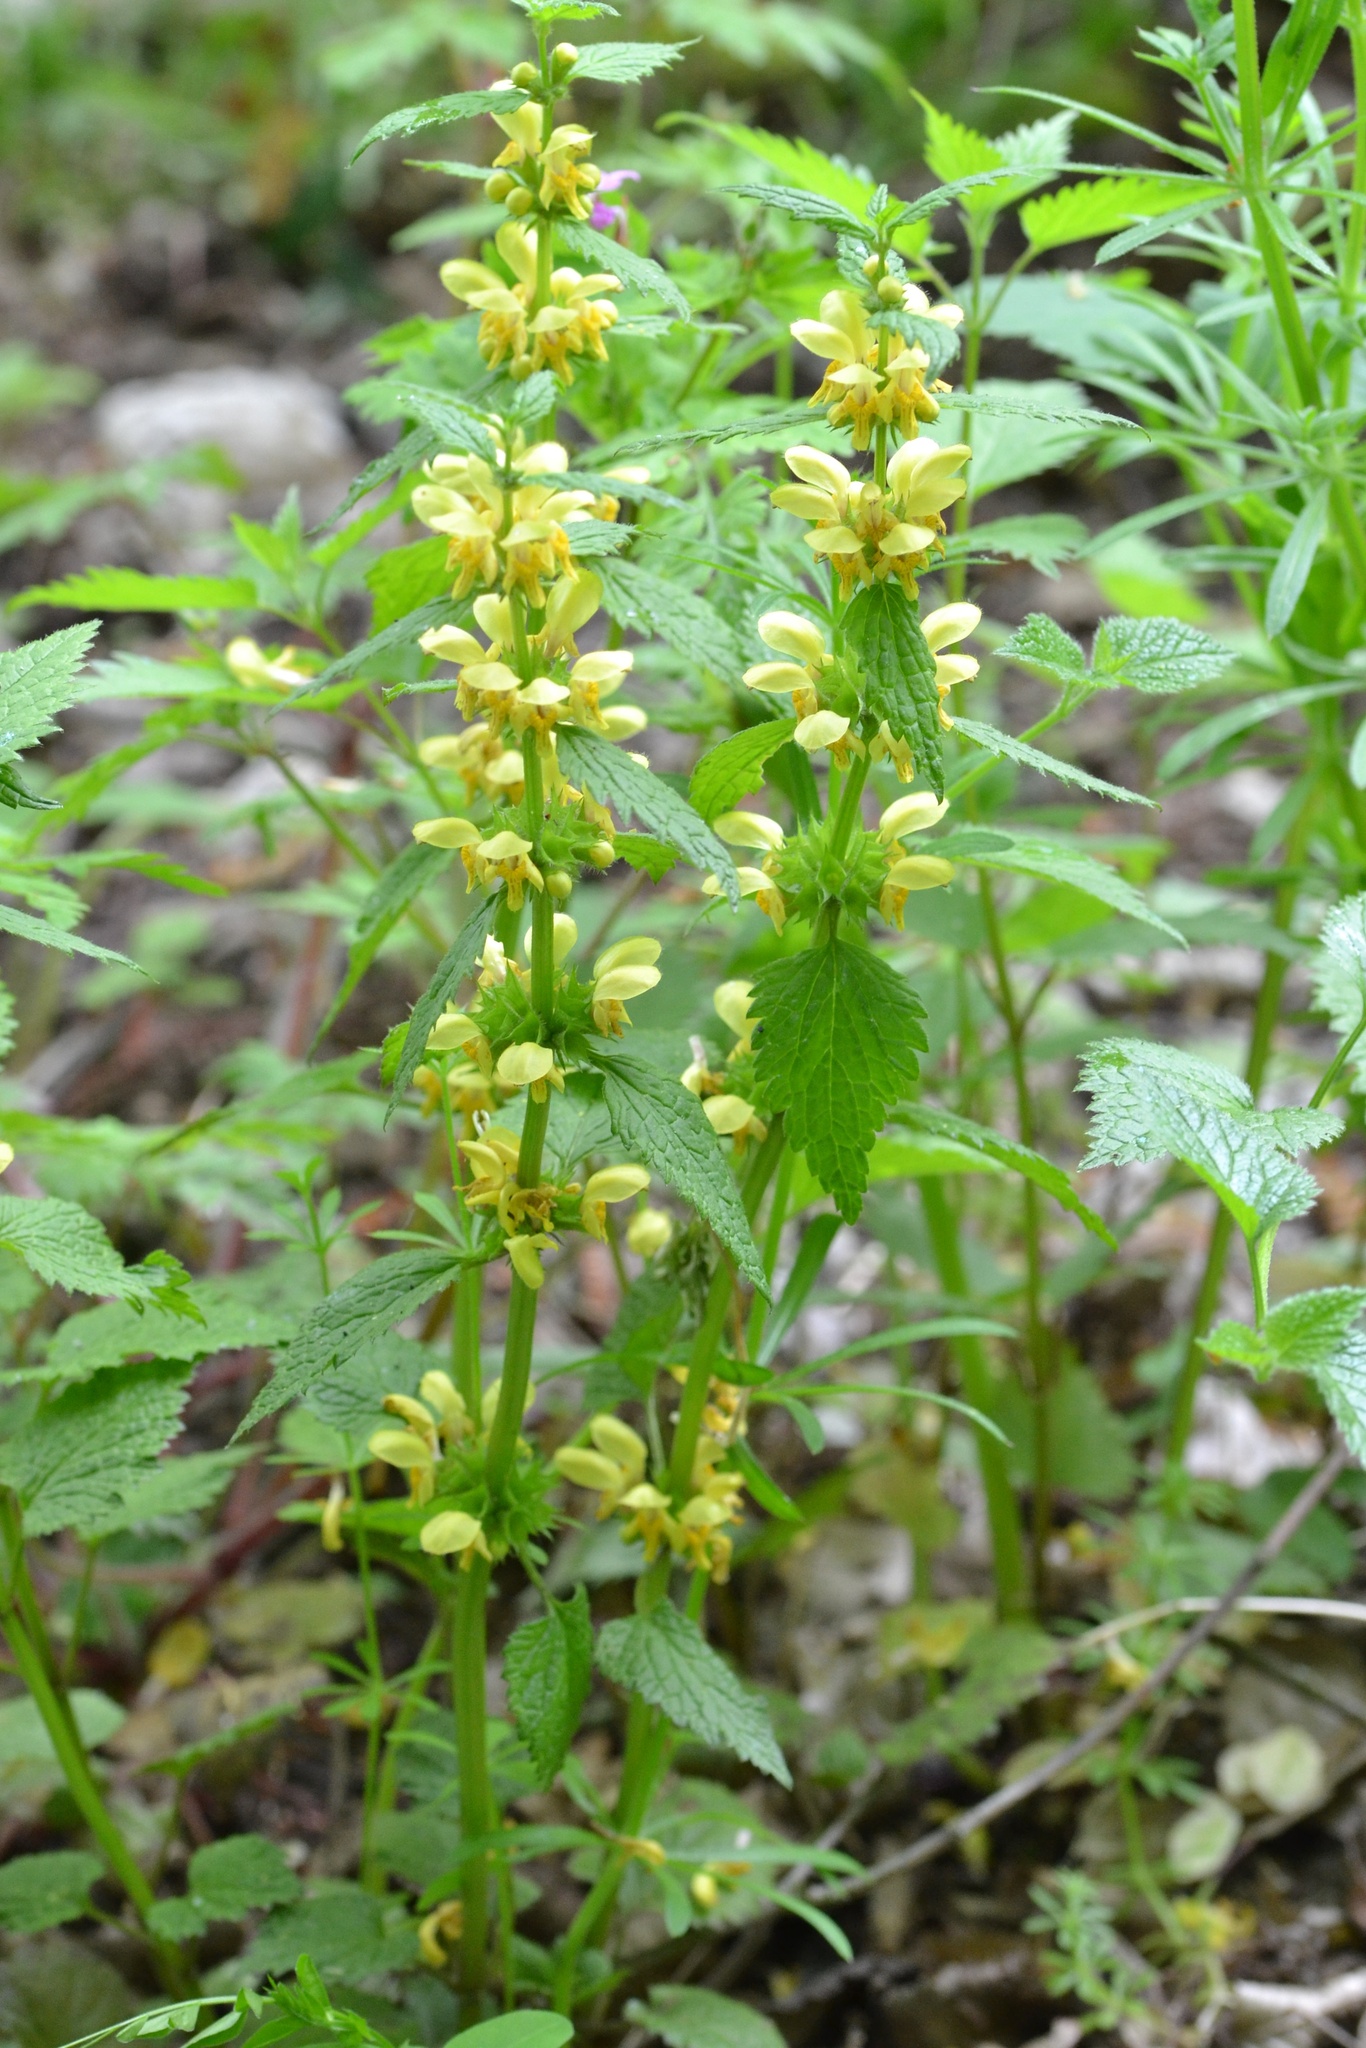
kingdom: Plantae
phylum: Tracheophyta
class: Magnoliopsida
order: Lamiales
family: Lamiaceae
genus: Lamium
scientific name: Lamium galeobdolon
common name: Yellow archangel
